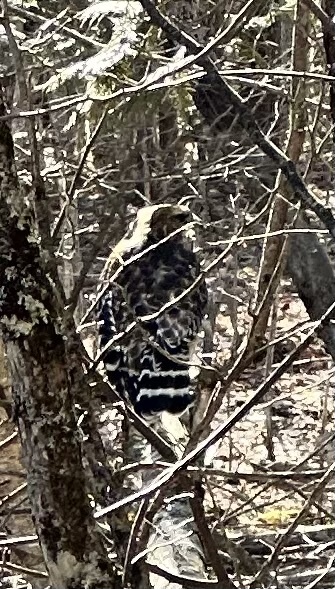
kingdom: Animalia
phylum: Chordata
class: Aves
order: Accipitriformes
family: Accipitridae
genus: Buteo
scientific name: Buteo lineatus
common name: Red-shouldered hawk
